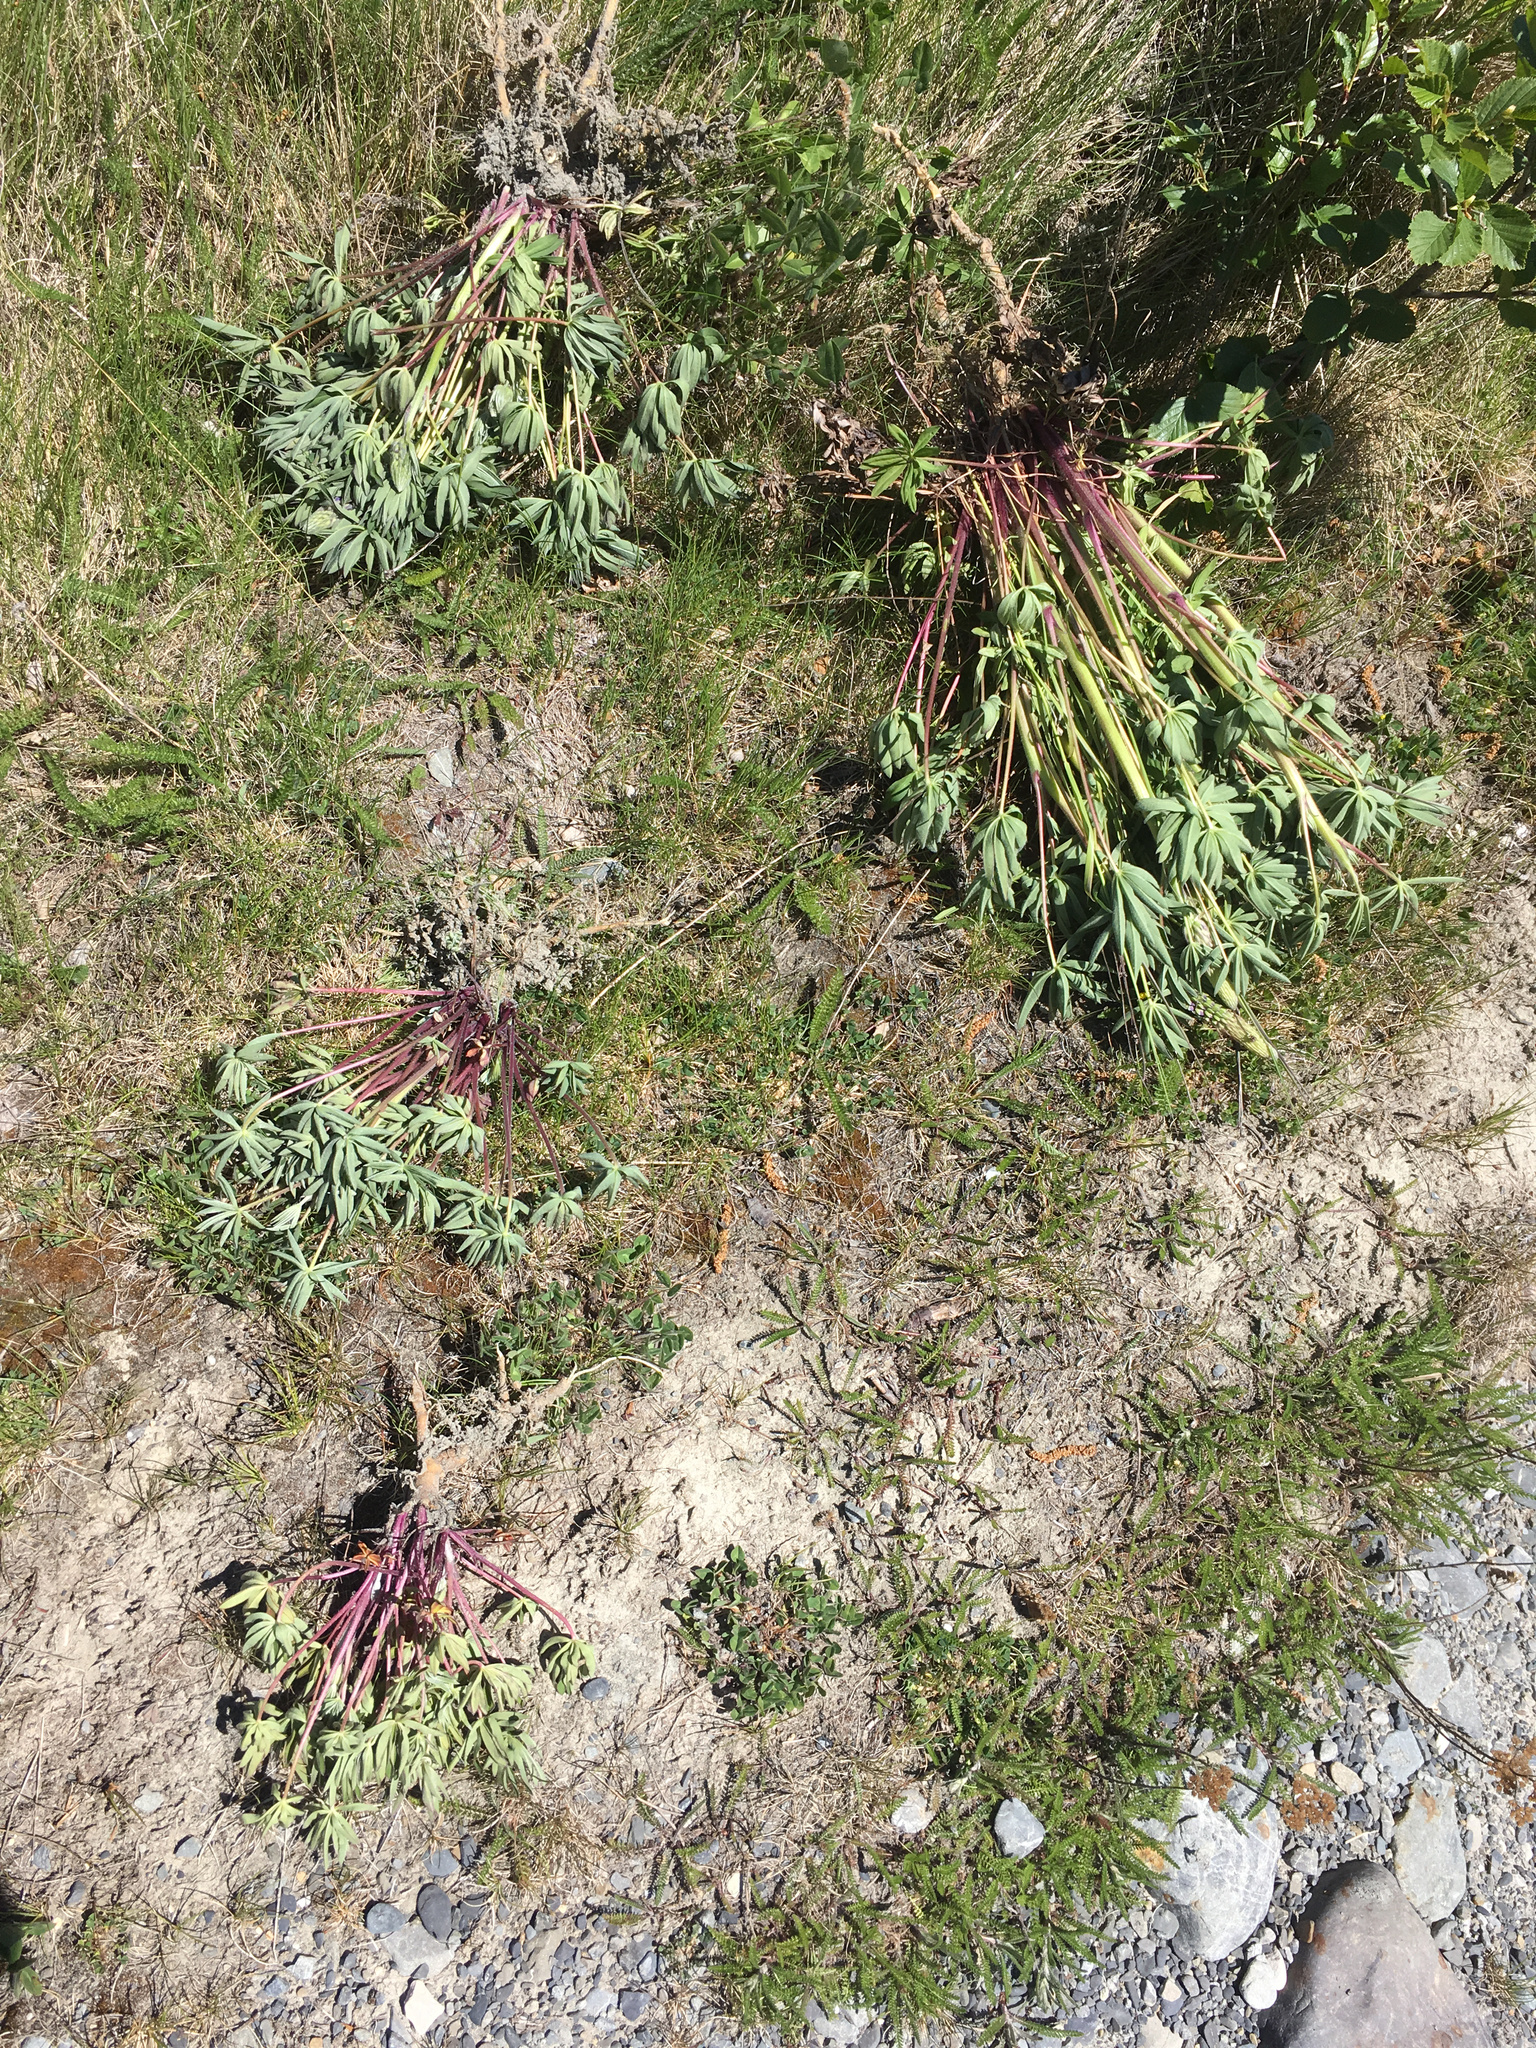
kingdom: Plantae
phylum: Tracheophyta
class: Magnoliopsida
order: Fabales
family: Fabaceae
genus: Lupinus
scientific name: Lupinus polyphyllus
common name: Garden lupin
